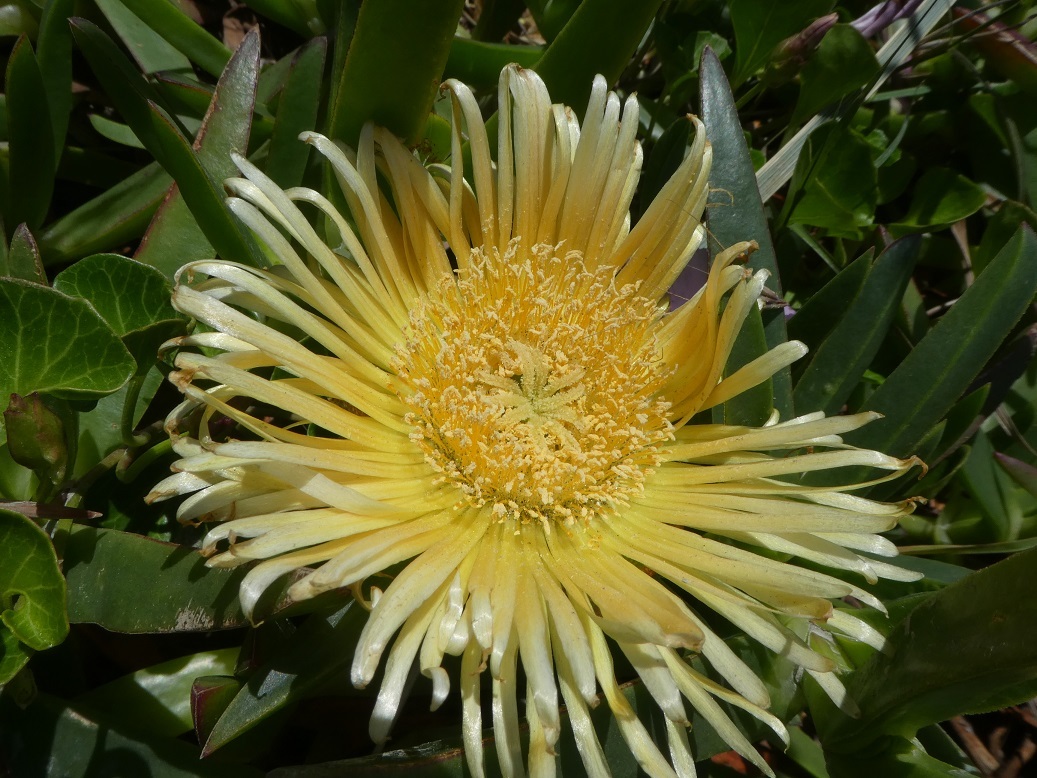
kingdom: Plantae
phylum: Tracheophyta
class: Magnoliopsida
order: Caryophyllales
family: Aizoaceae
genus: Carpobrotus
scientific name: Carpobrotus edulis
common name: Hottentot-fig
